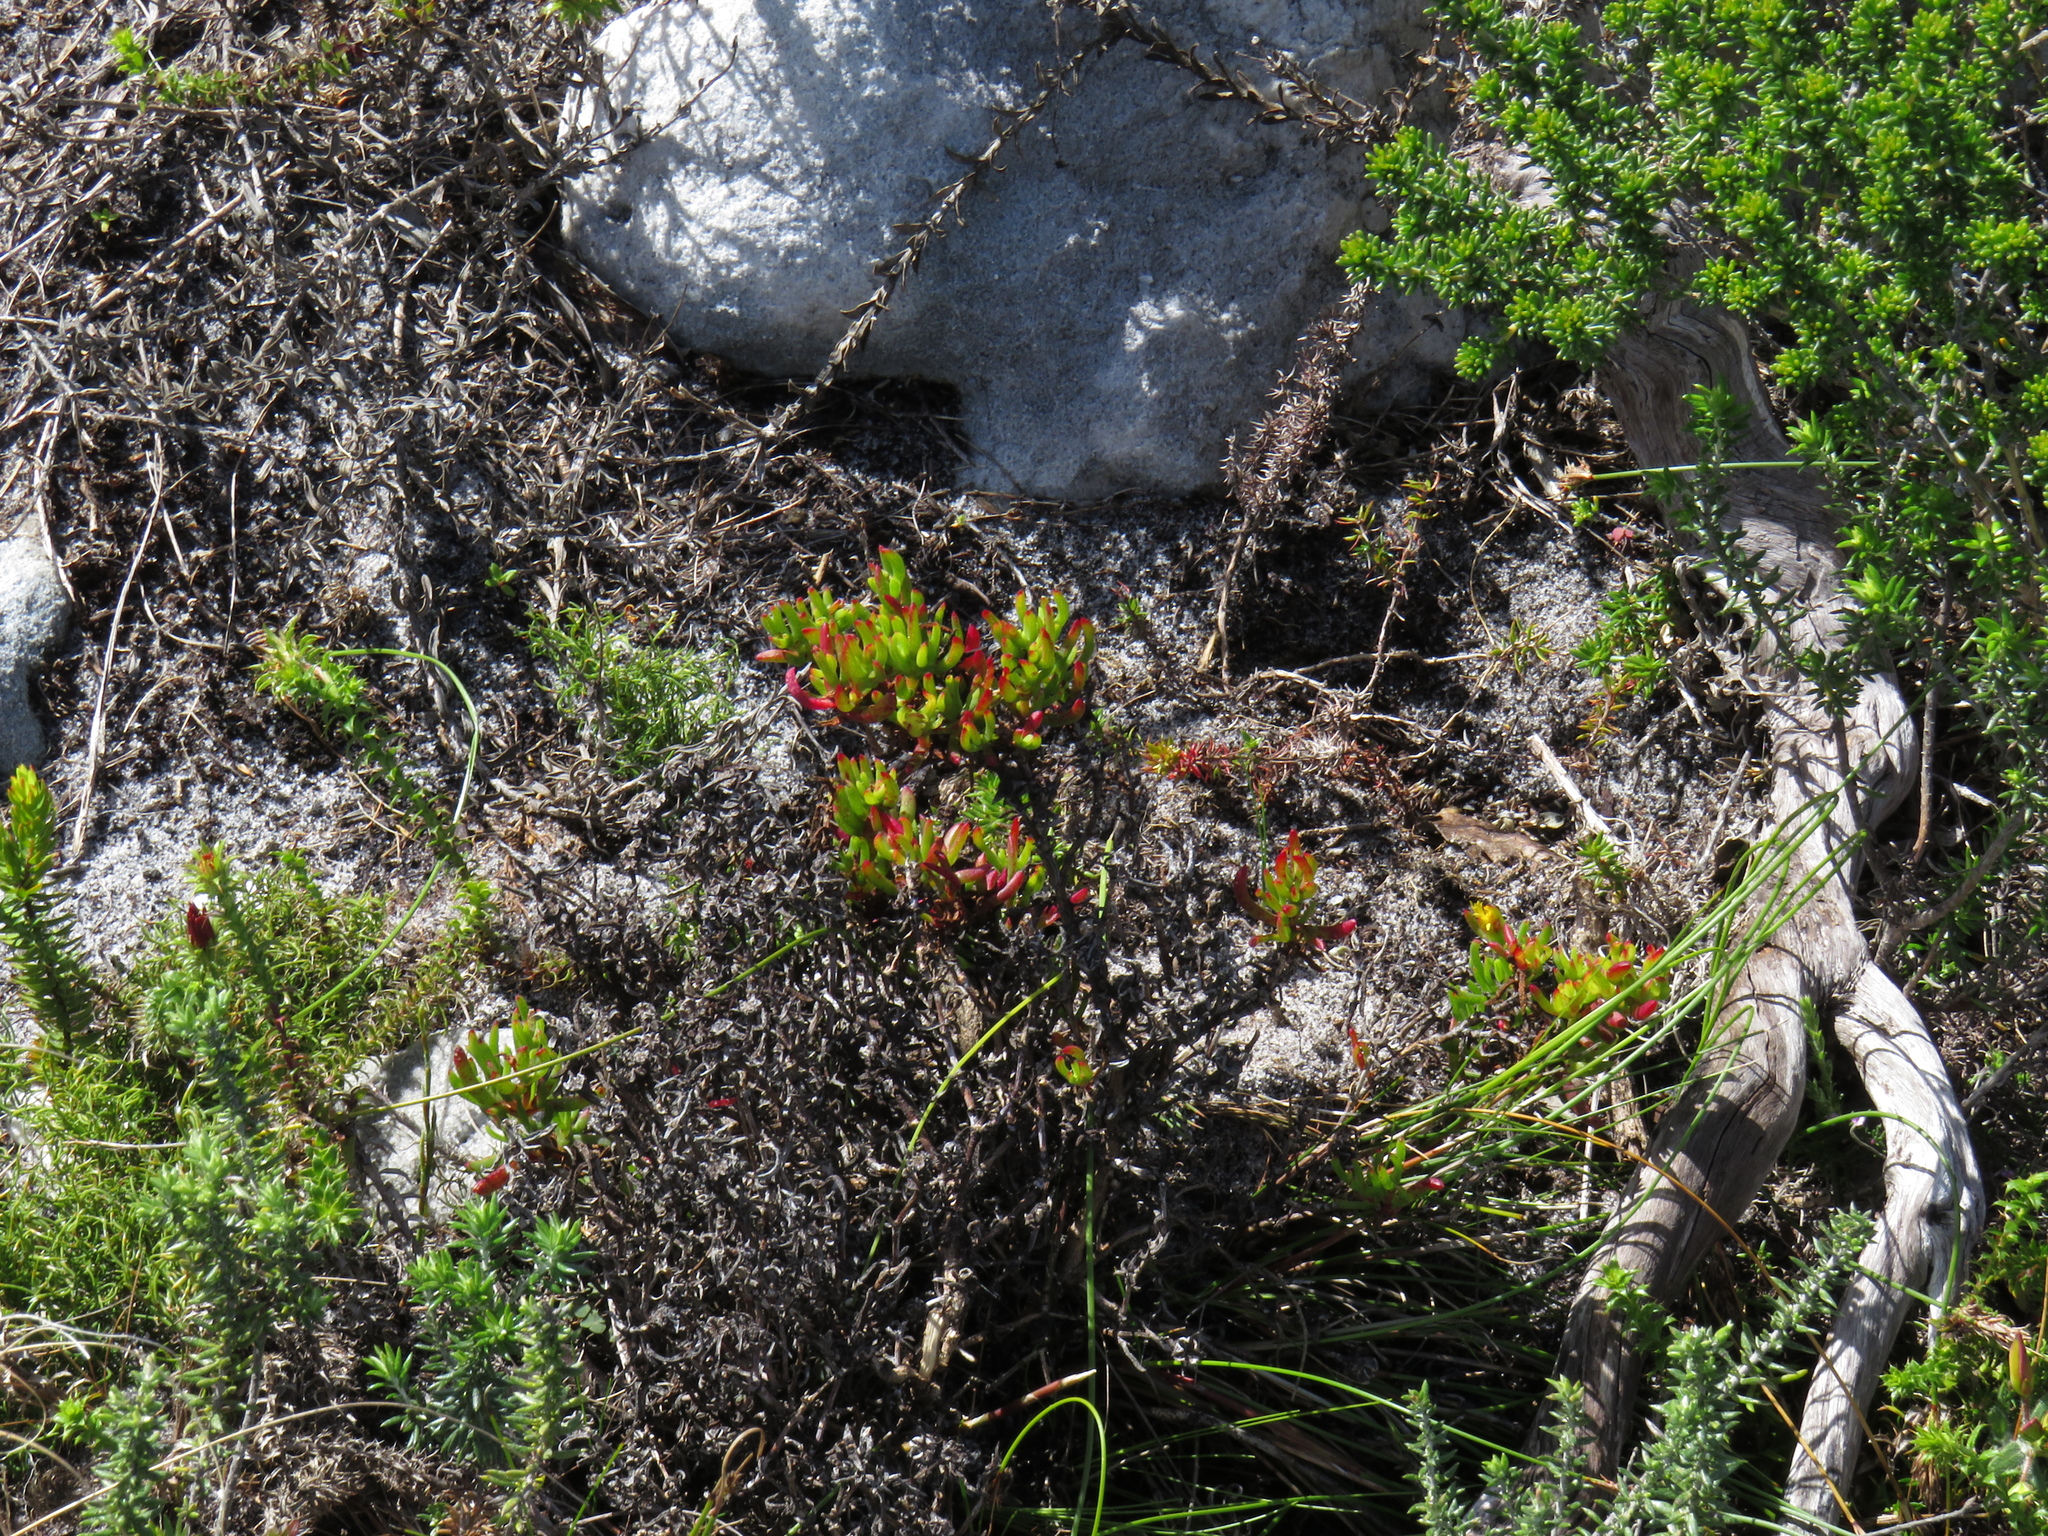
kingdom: Plantae
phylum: Tracheophyta
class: Magnoliopsida
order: Caryophyllales
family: Aizoaceae
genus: Lampranthus
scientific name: Lampranthus bicolor
